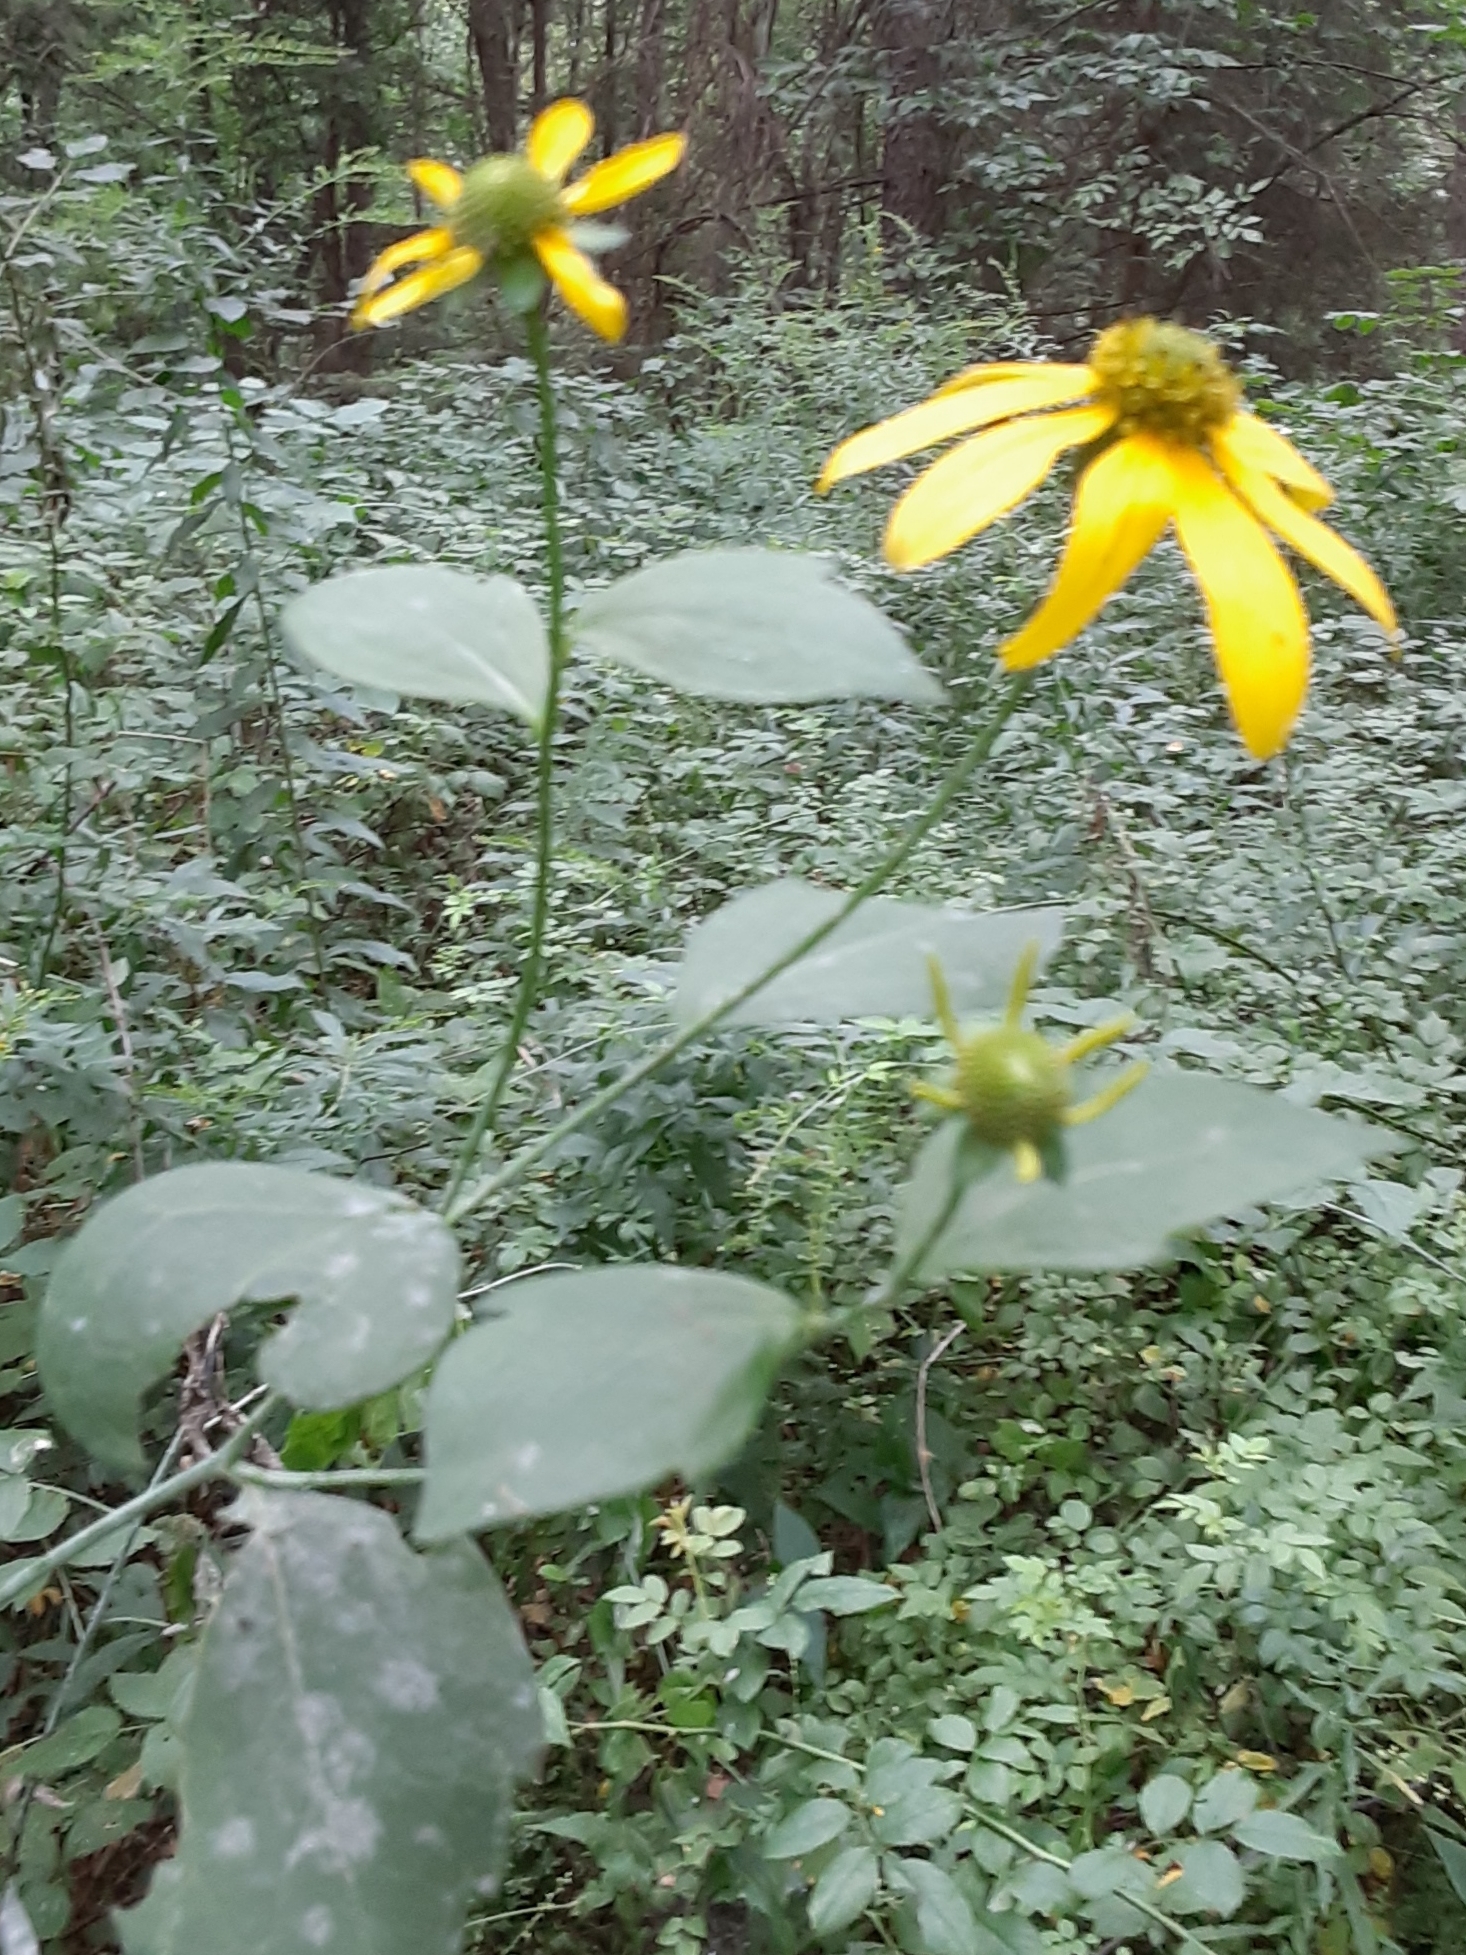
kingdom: Plantae
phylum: Tracheophyta
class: Magnoliopsida
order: Asterales
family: Asteraceae
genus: Rudbeckia
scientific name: Rudbeckia laciniata
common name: Coneflower
